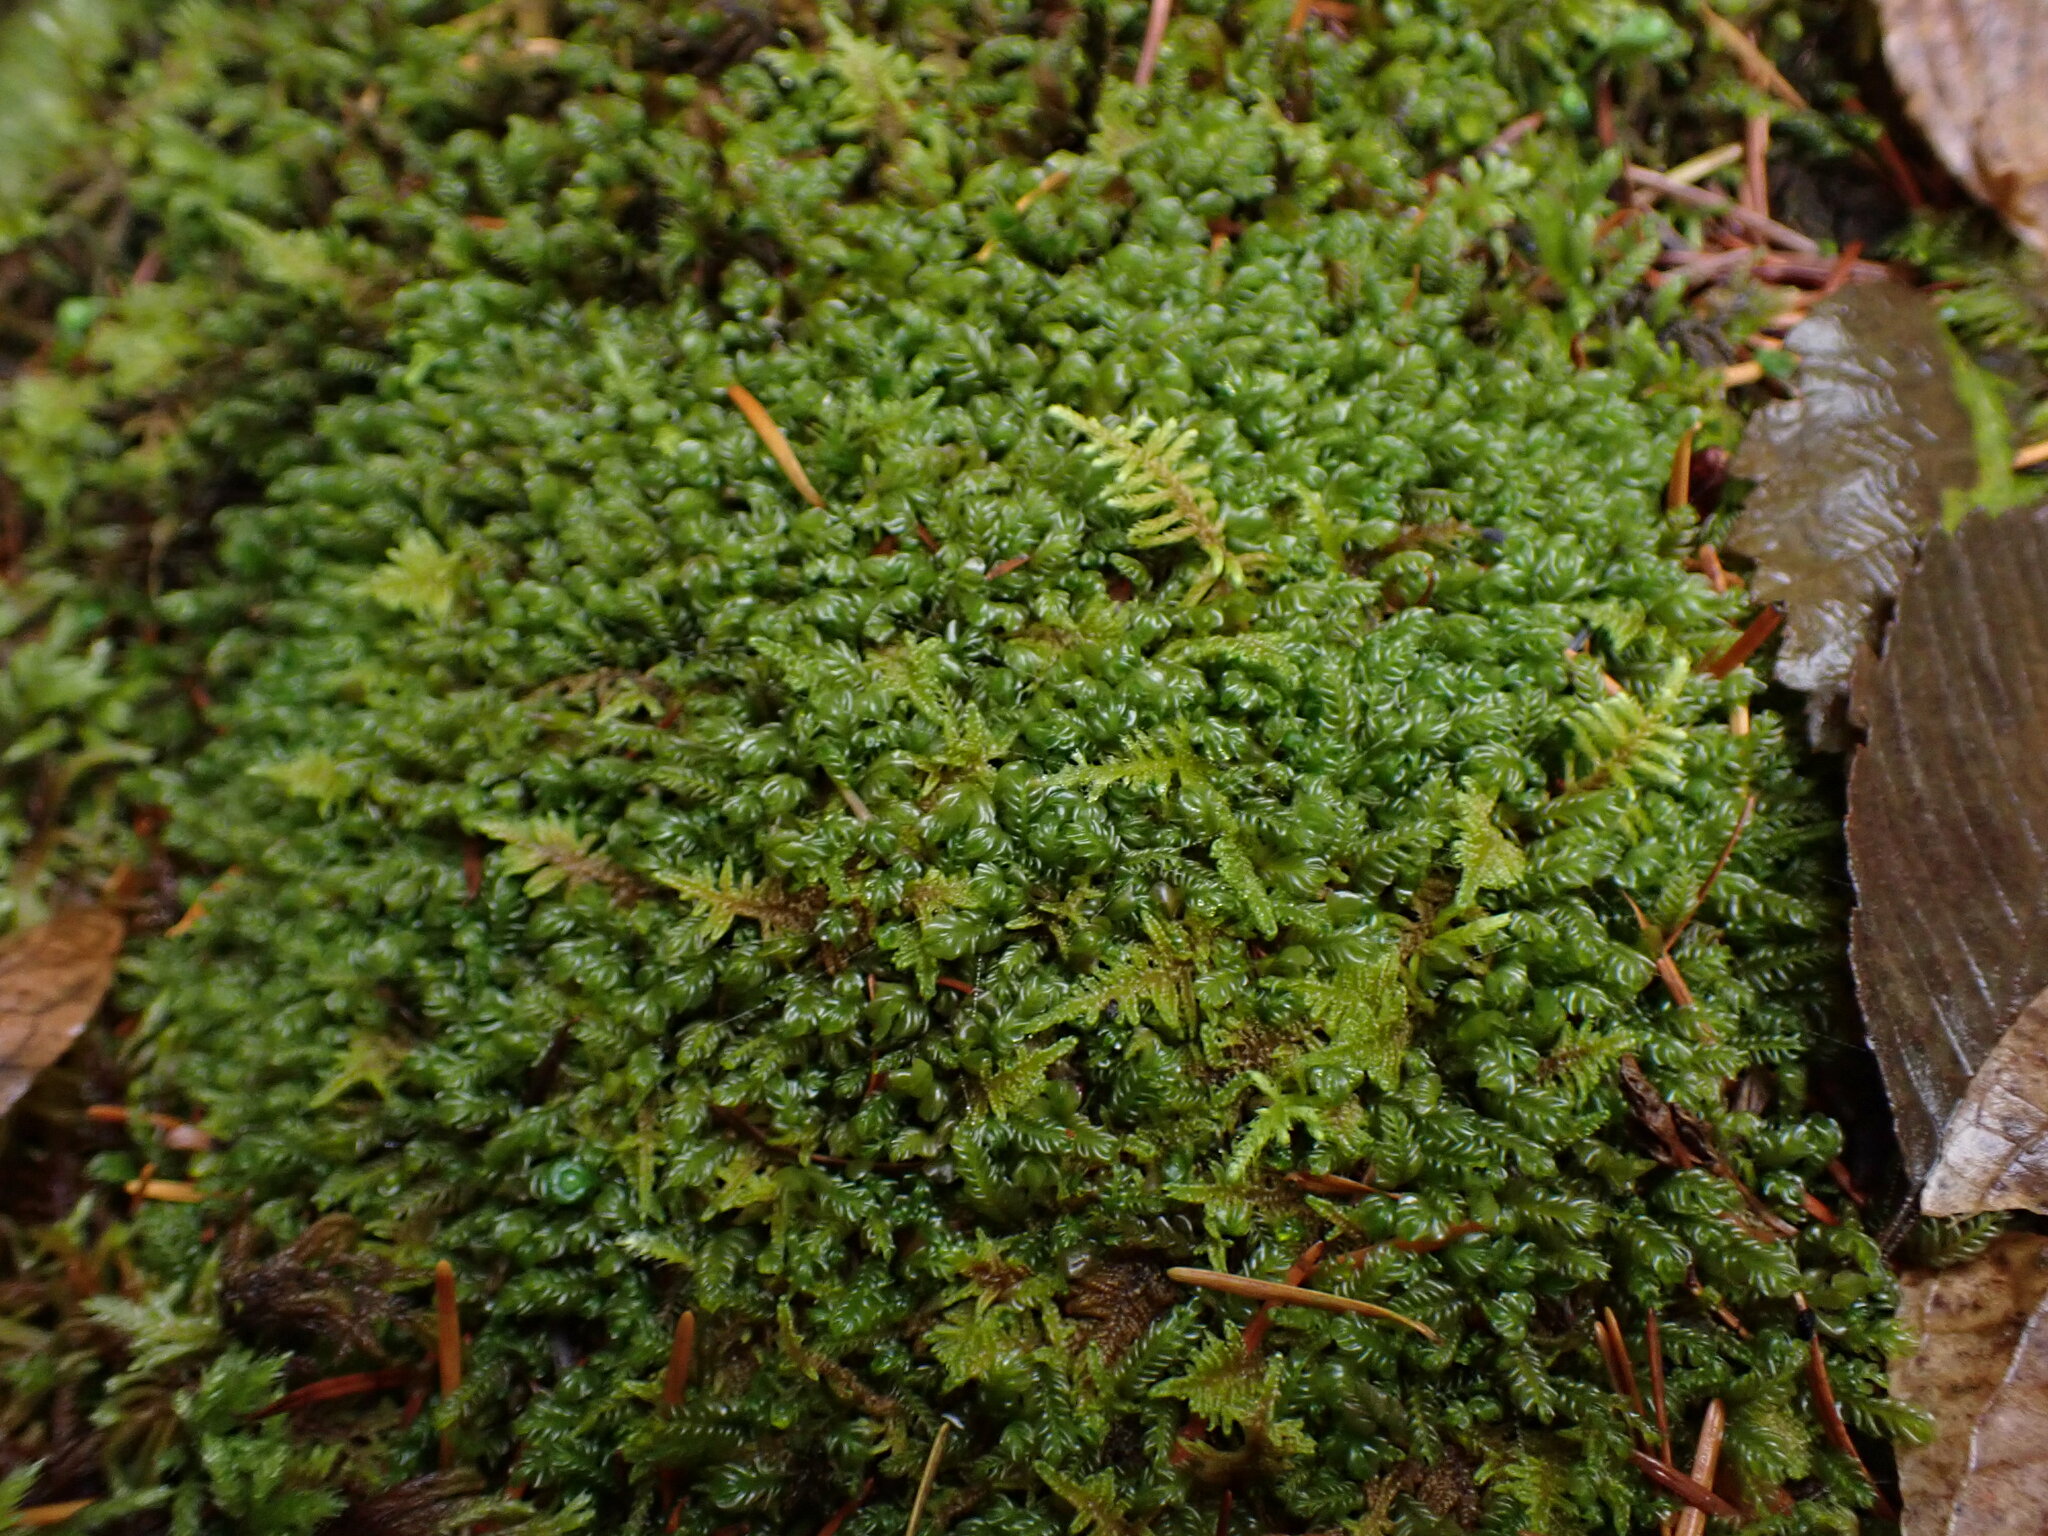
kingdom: Plantae
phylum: Marchantiophyta
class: Jungermanniopsida
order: Jungermanniales
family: Plagiochilaceae
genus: Plagiochila
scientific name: Plagiochila porelloides
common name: Lesser featherwort
